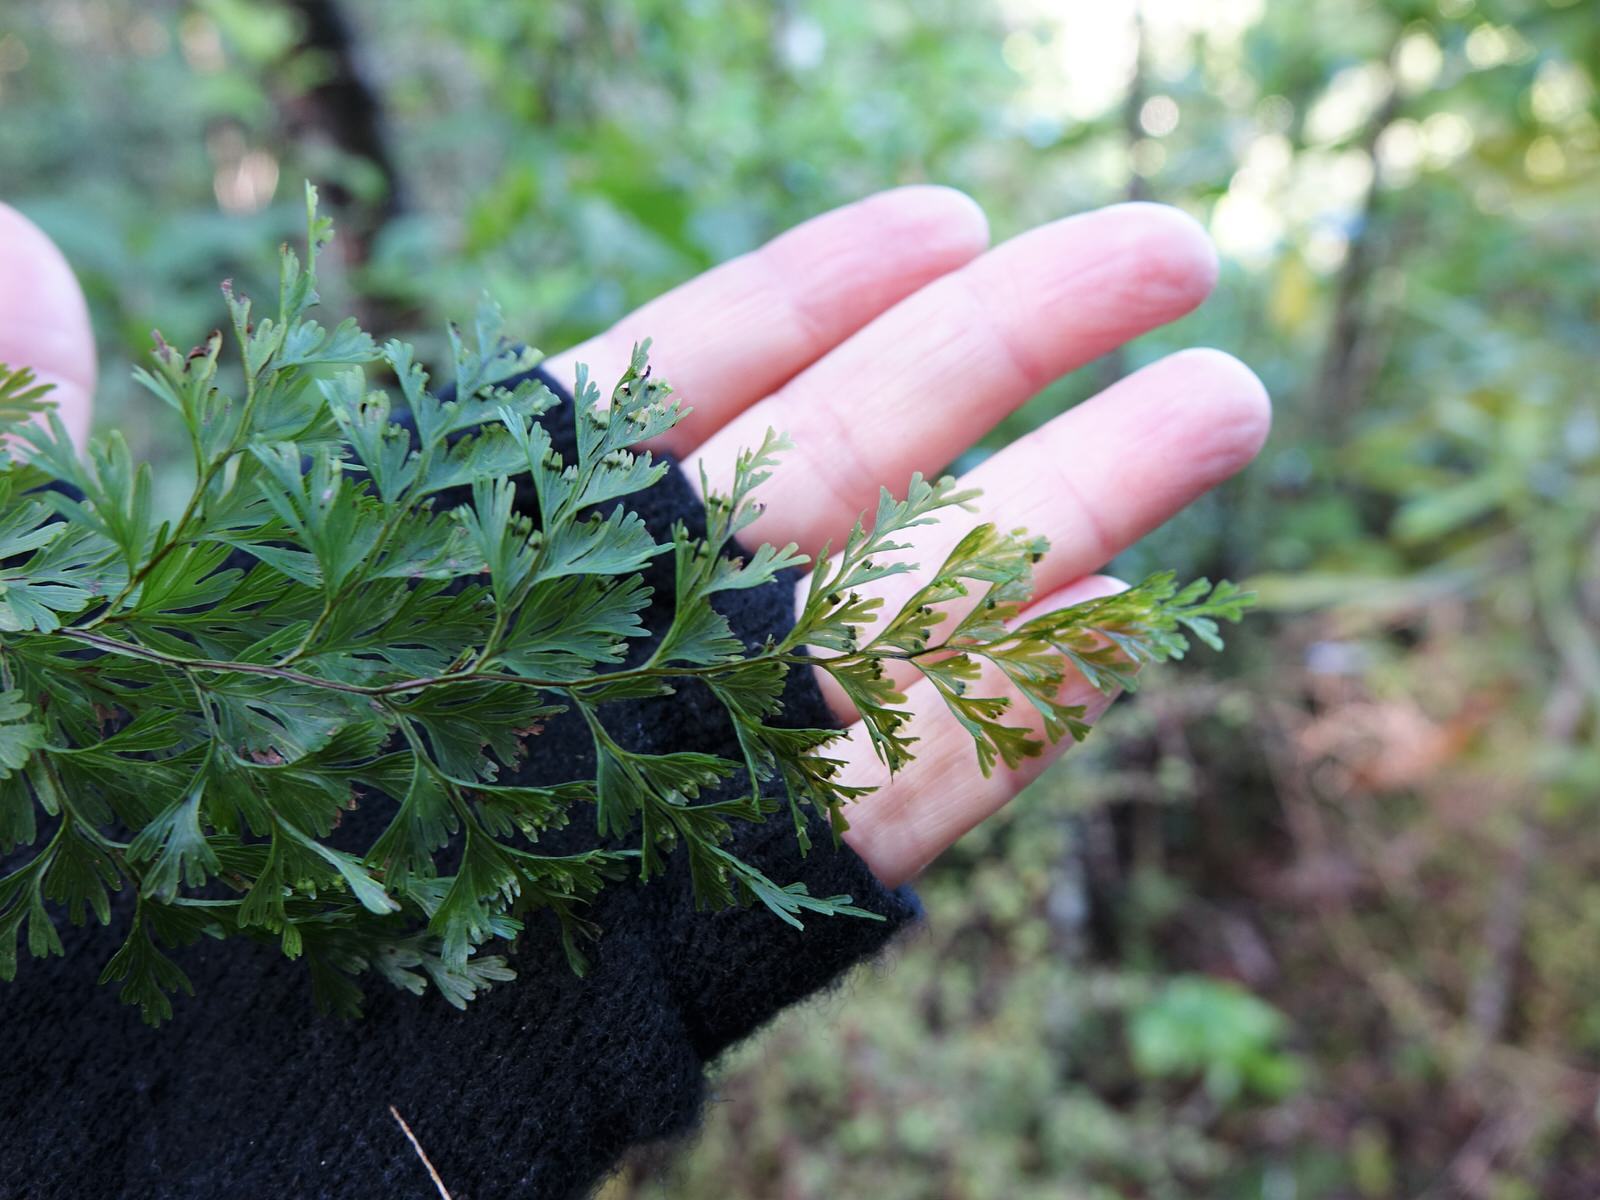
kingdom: Plantae
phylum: Tracheophyta
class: Polypodiopsida
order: Hymenophyllales
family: Hymenophyllaceae
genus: Hymenophyllum
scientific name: Hymenophyllum demissum
